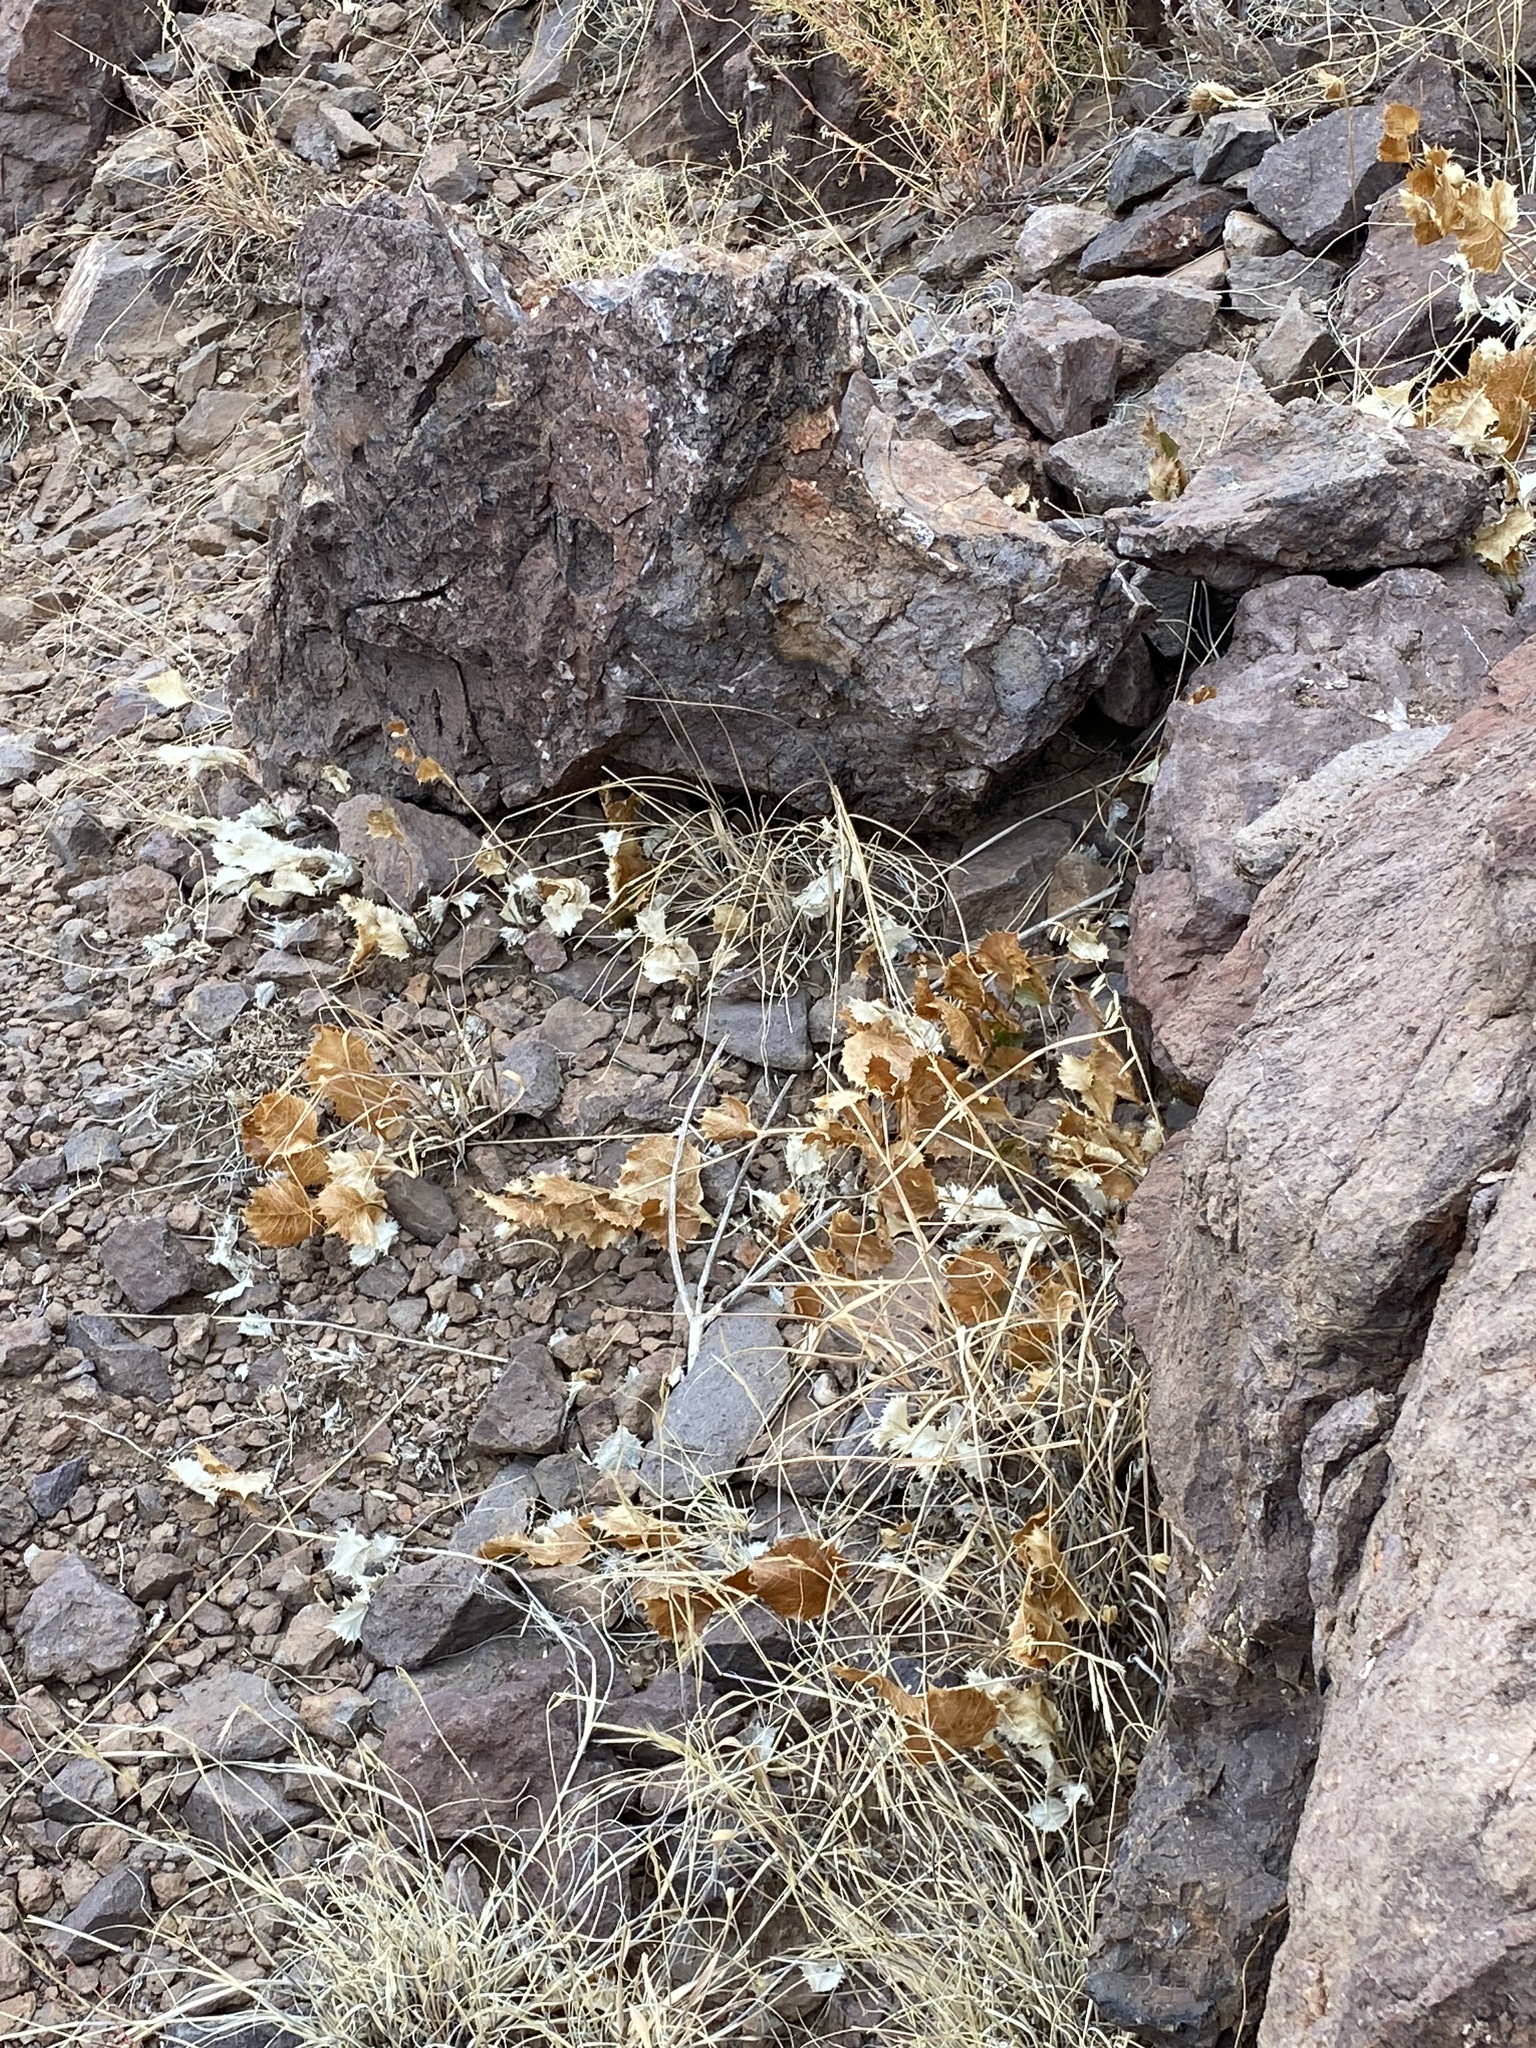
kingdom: Plantae
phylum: Tracheophyta
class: Magnoliopsida
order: Asterales
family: Asteraceae
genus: Acourtia
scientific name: Acourtia nana
